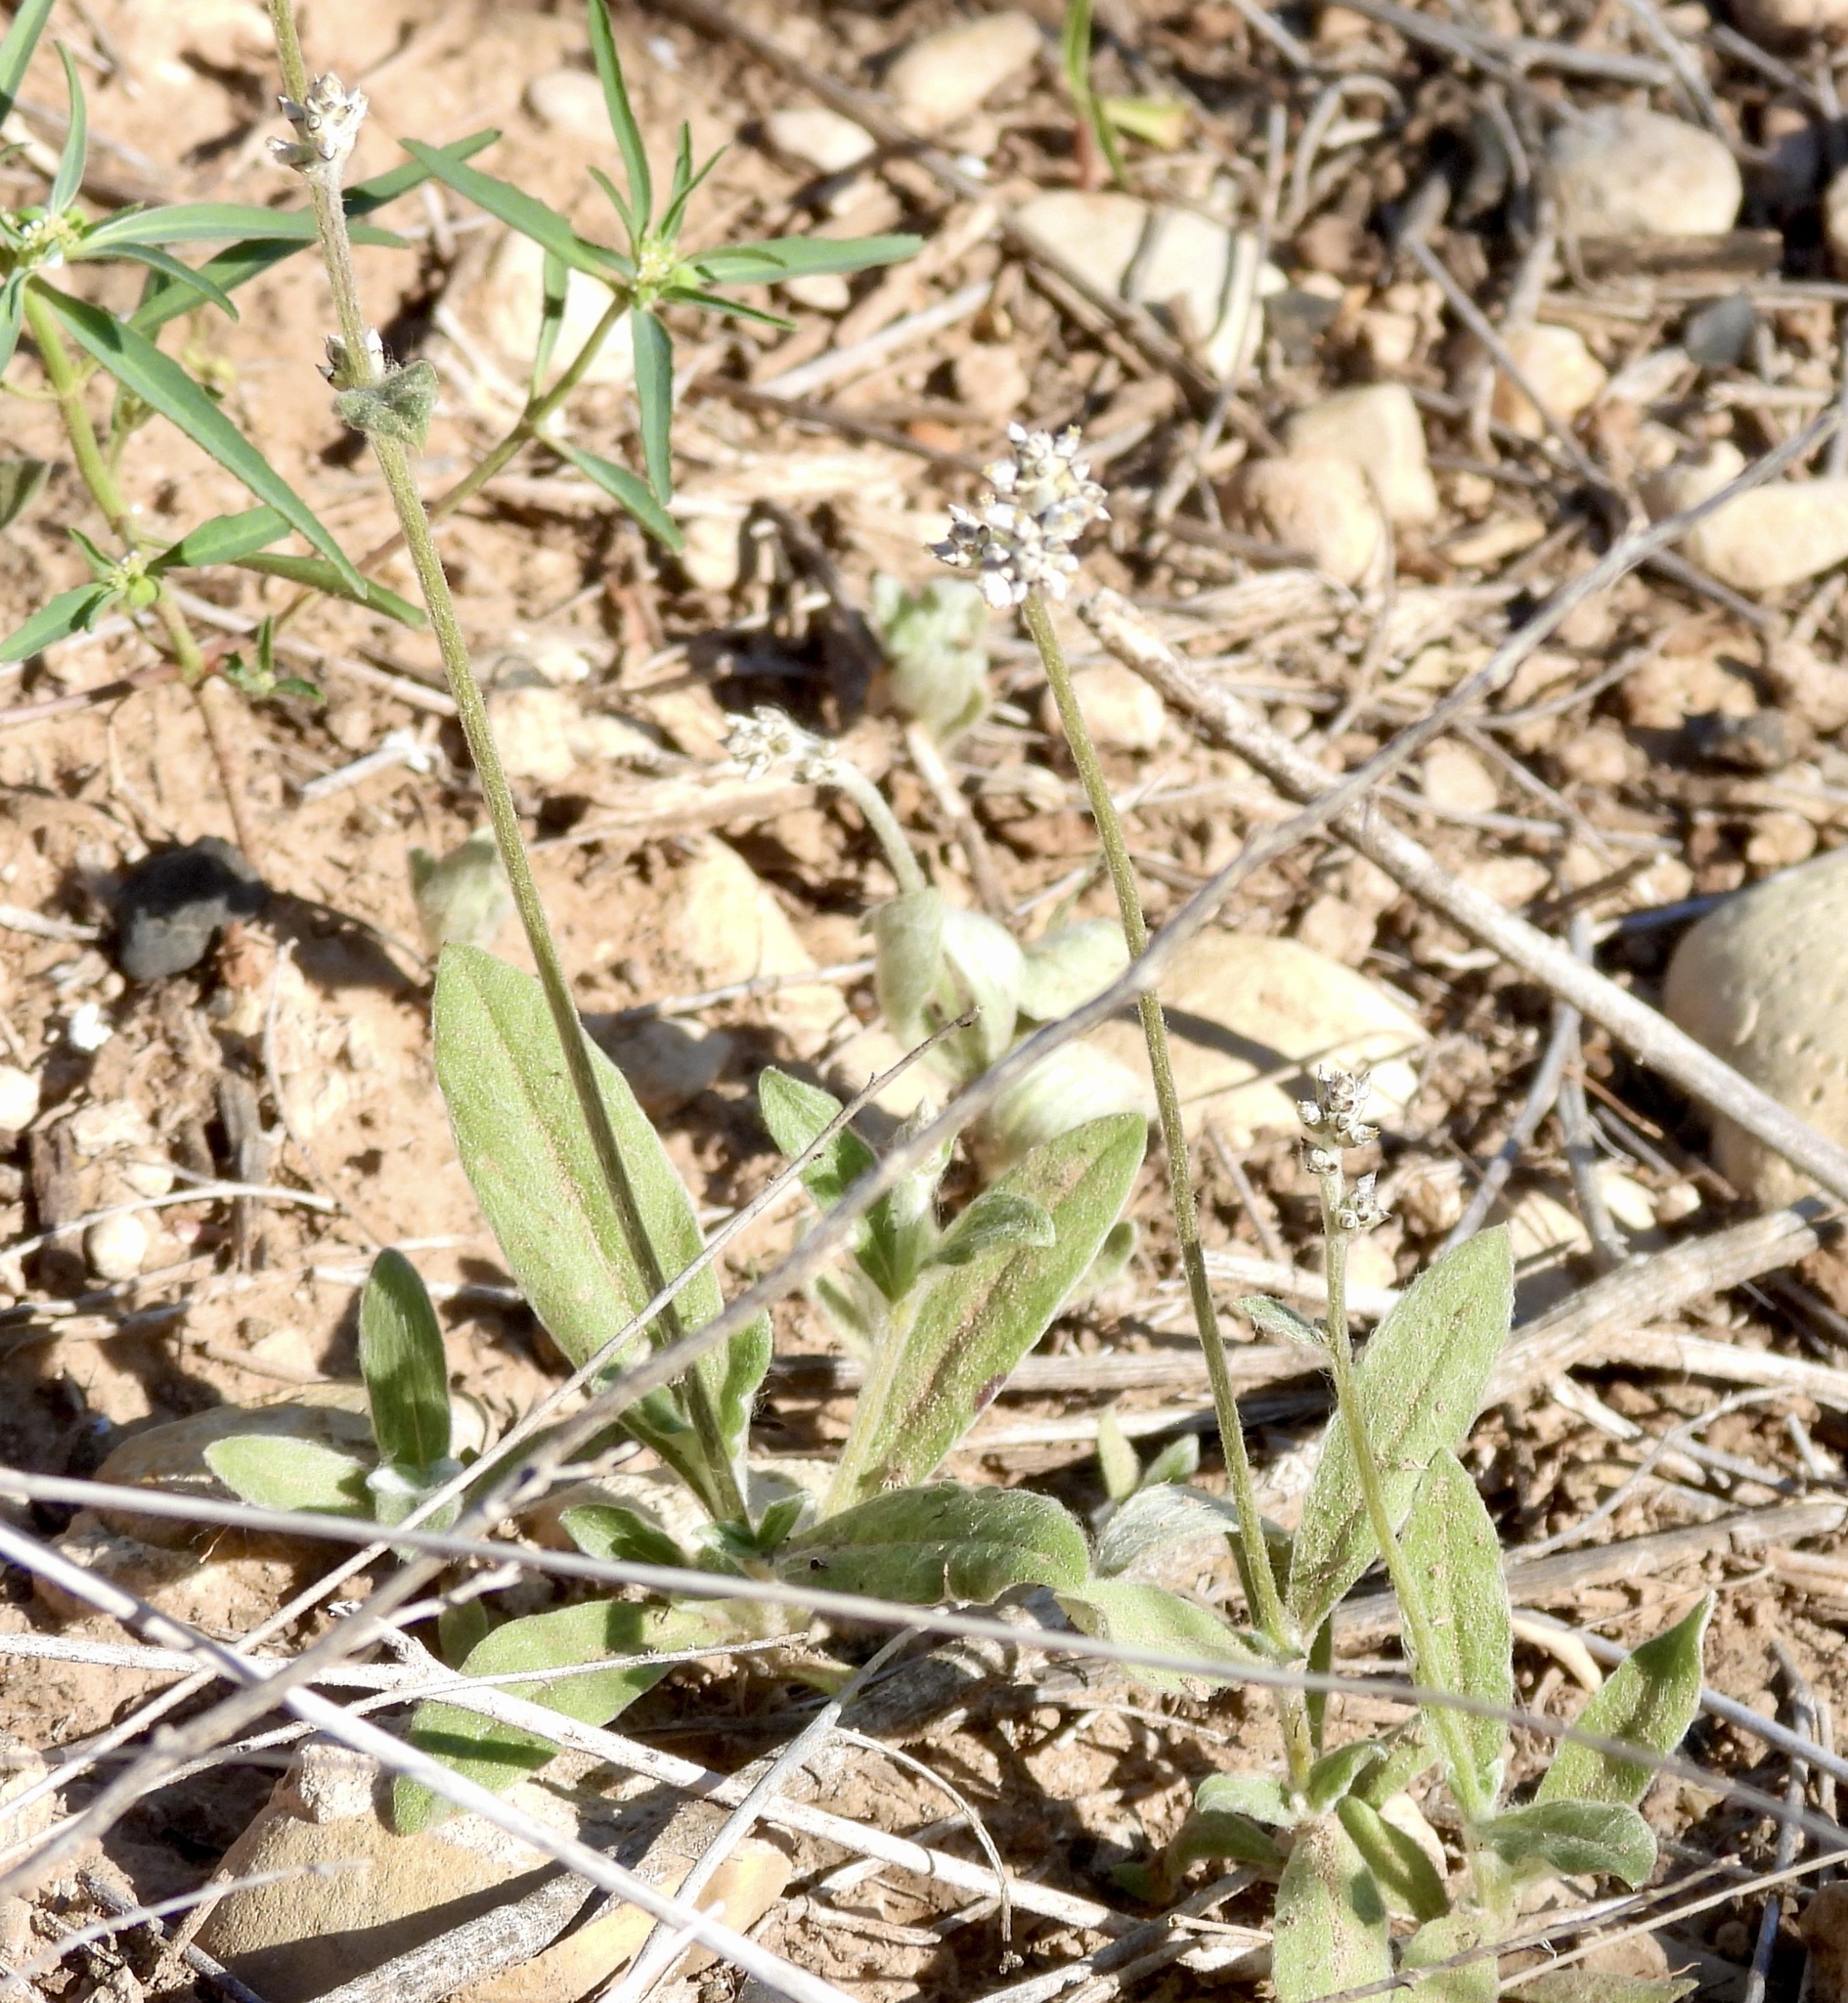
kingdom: Plantae
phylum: Tracheophyta
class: Magnoliopsida
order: Caryophyllales
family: Amaranthaceae
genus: Froelichia
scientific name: Froelichia gracilis
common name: Slender cottonweed
